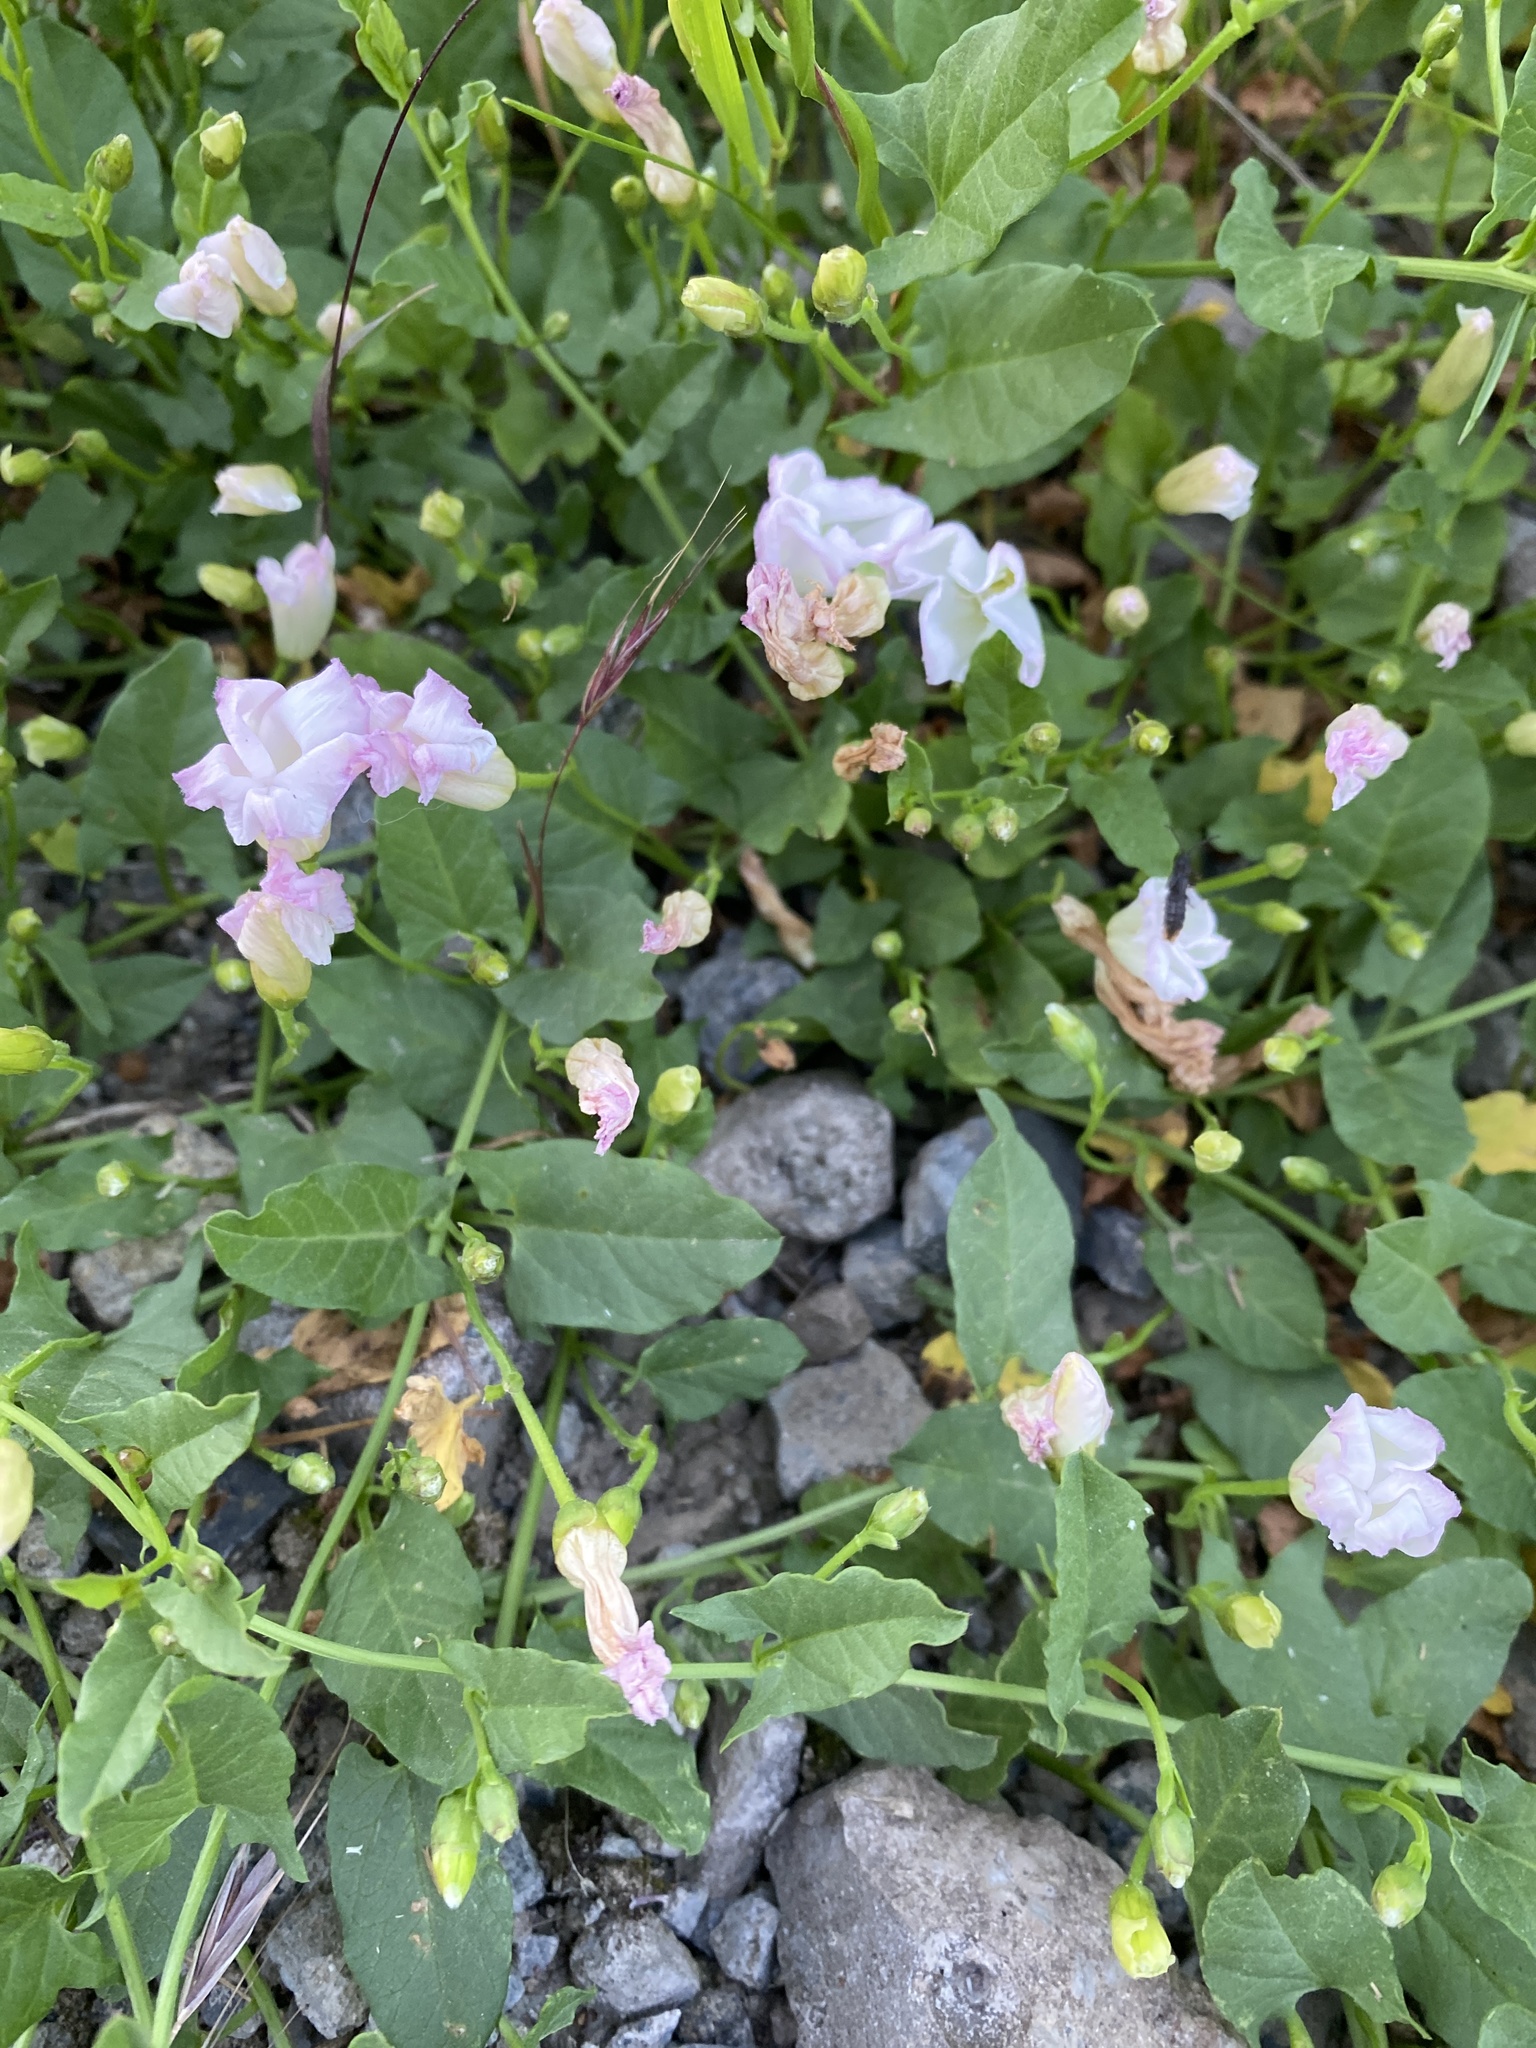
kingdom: Plantae
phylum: Tracheophyta
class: Magnoliopsida
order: Solanales
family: Convolvulaceae
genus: Convolvulus
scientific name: Convolvulus arvensis
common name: Field bindweed
